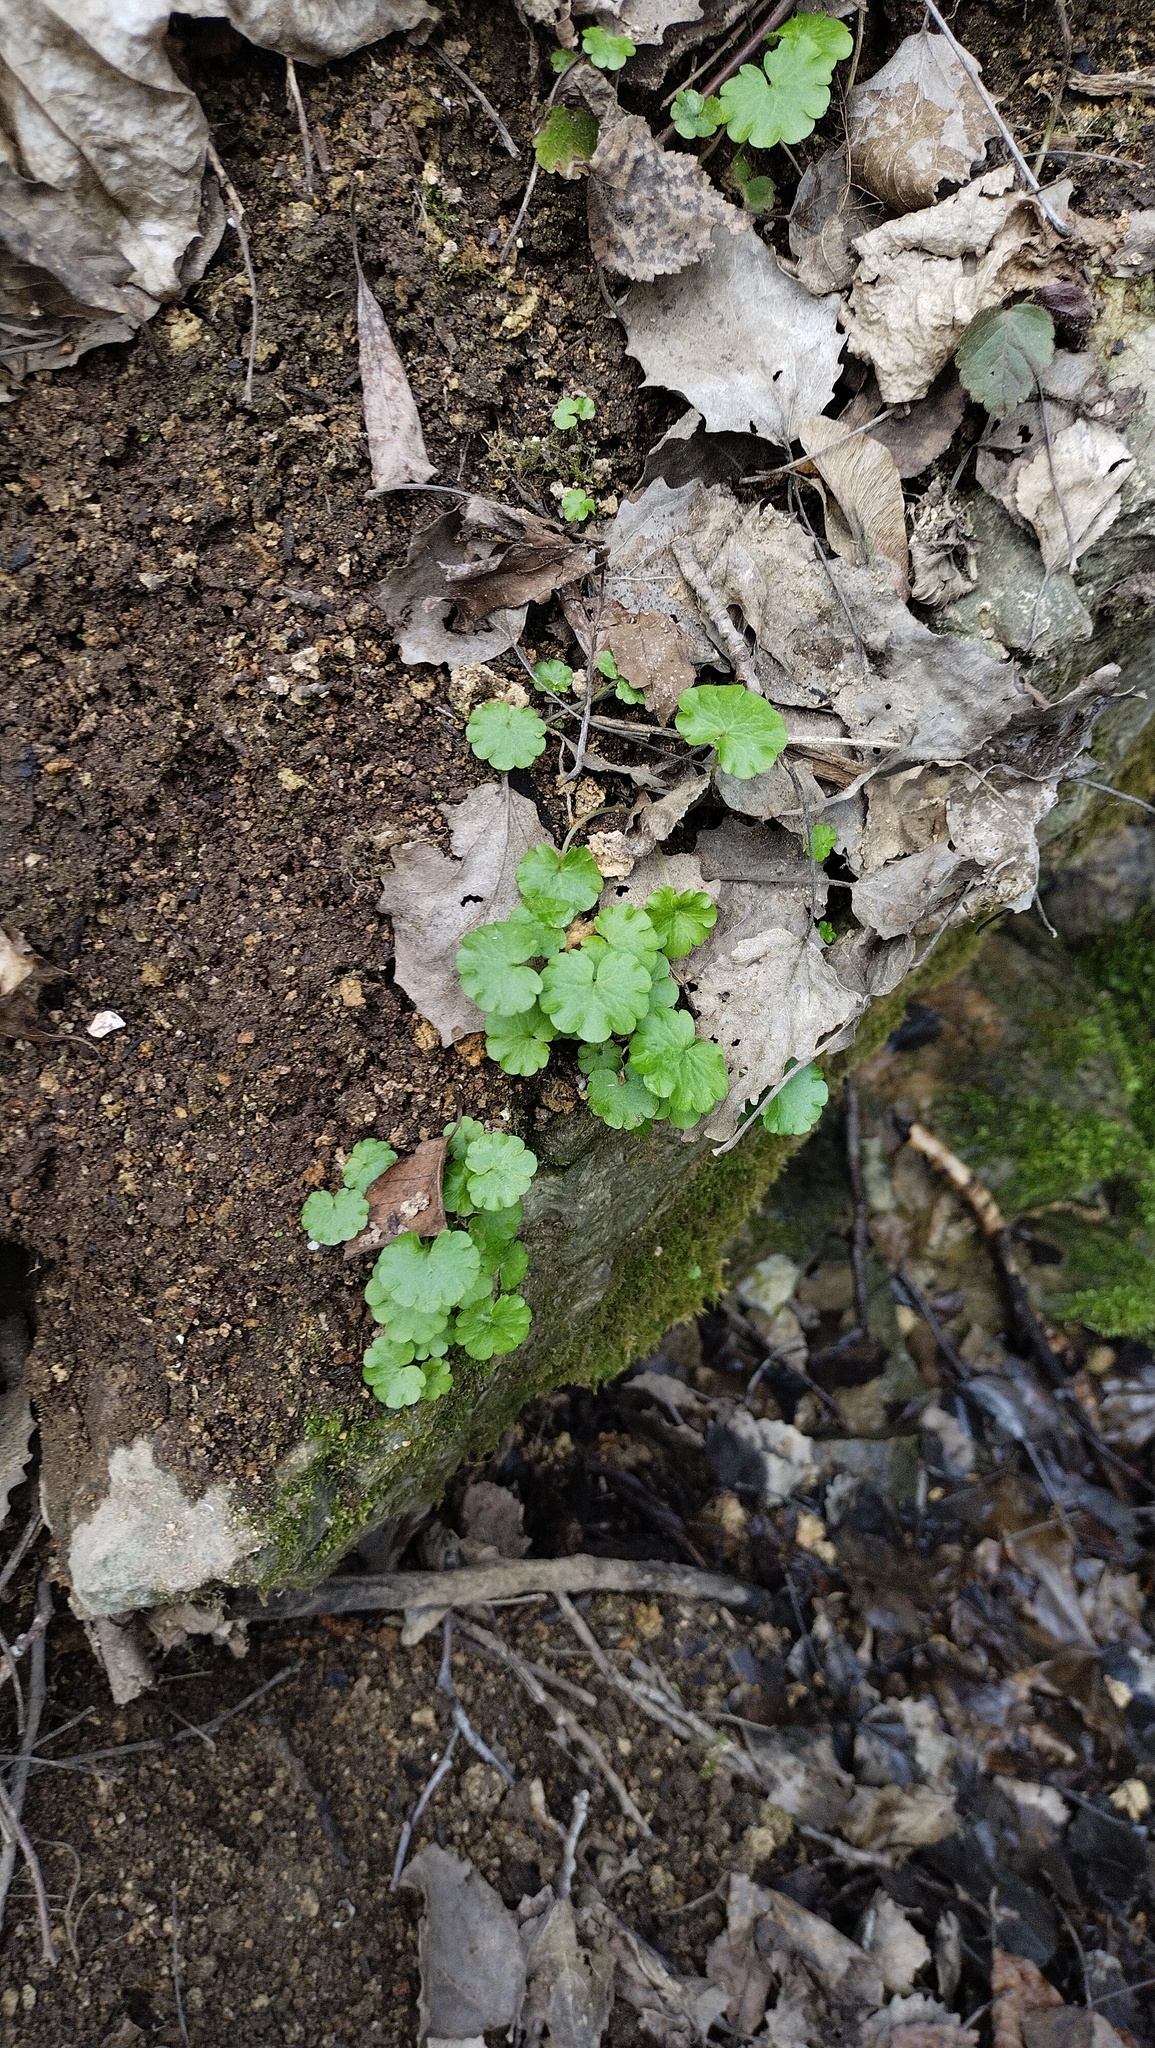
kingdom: Plantae
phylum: Tracheophyta
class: Magnoliopsida
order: Saxifragales
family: Saxifragaceae
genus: Chrysosplenium
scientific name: Chrysosplenium alternifolium
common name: Alternate-leaved golden-saxifrage
